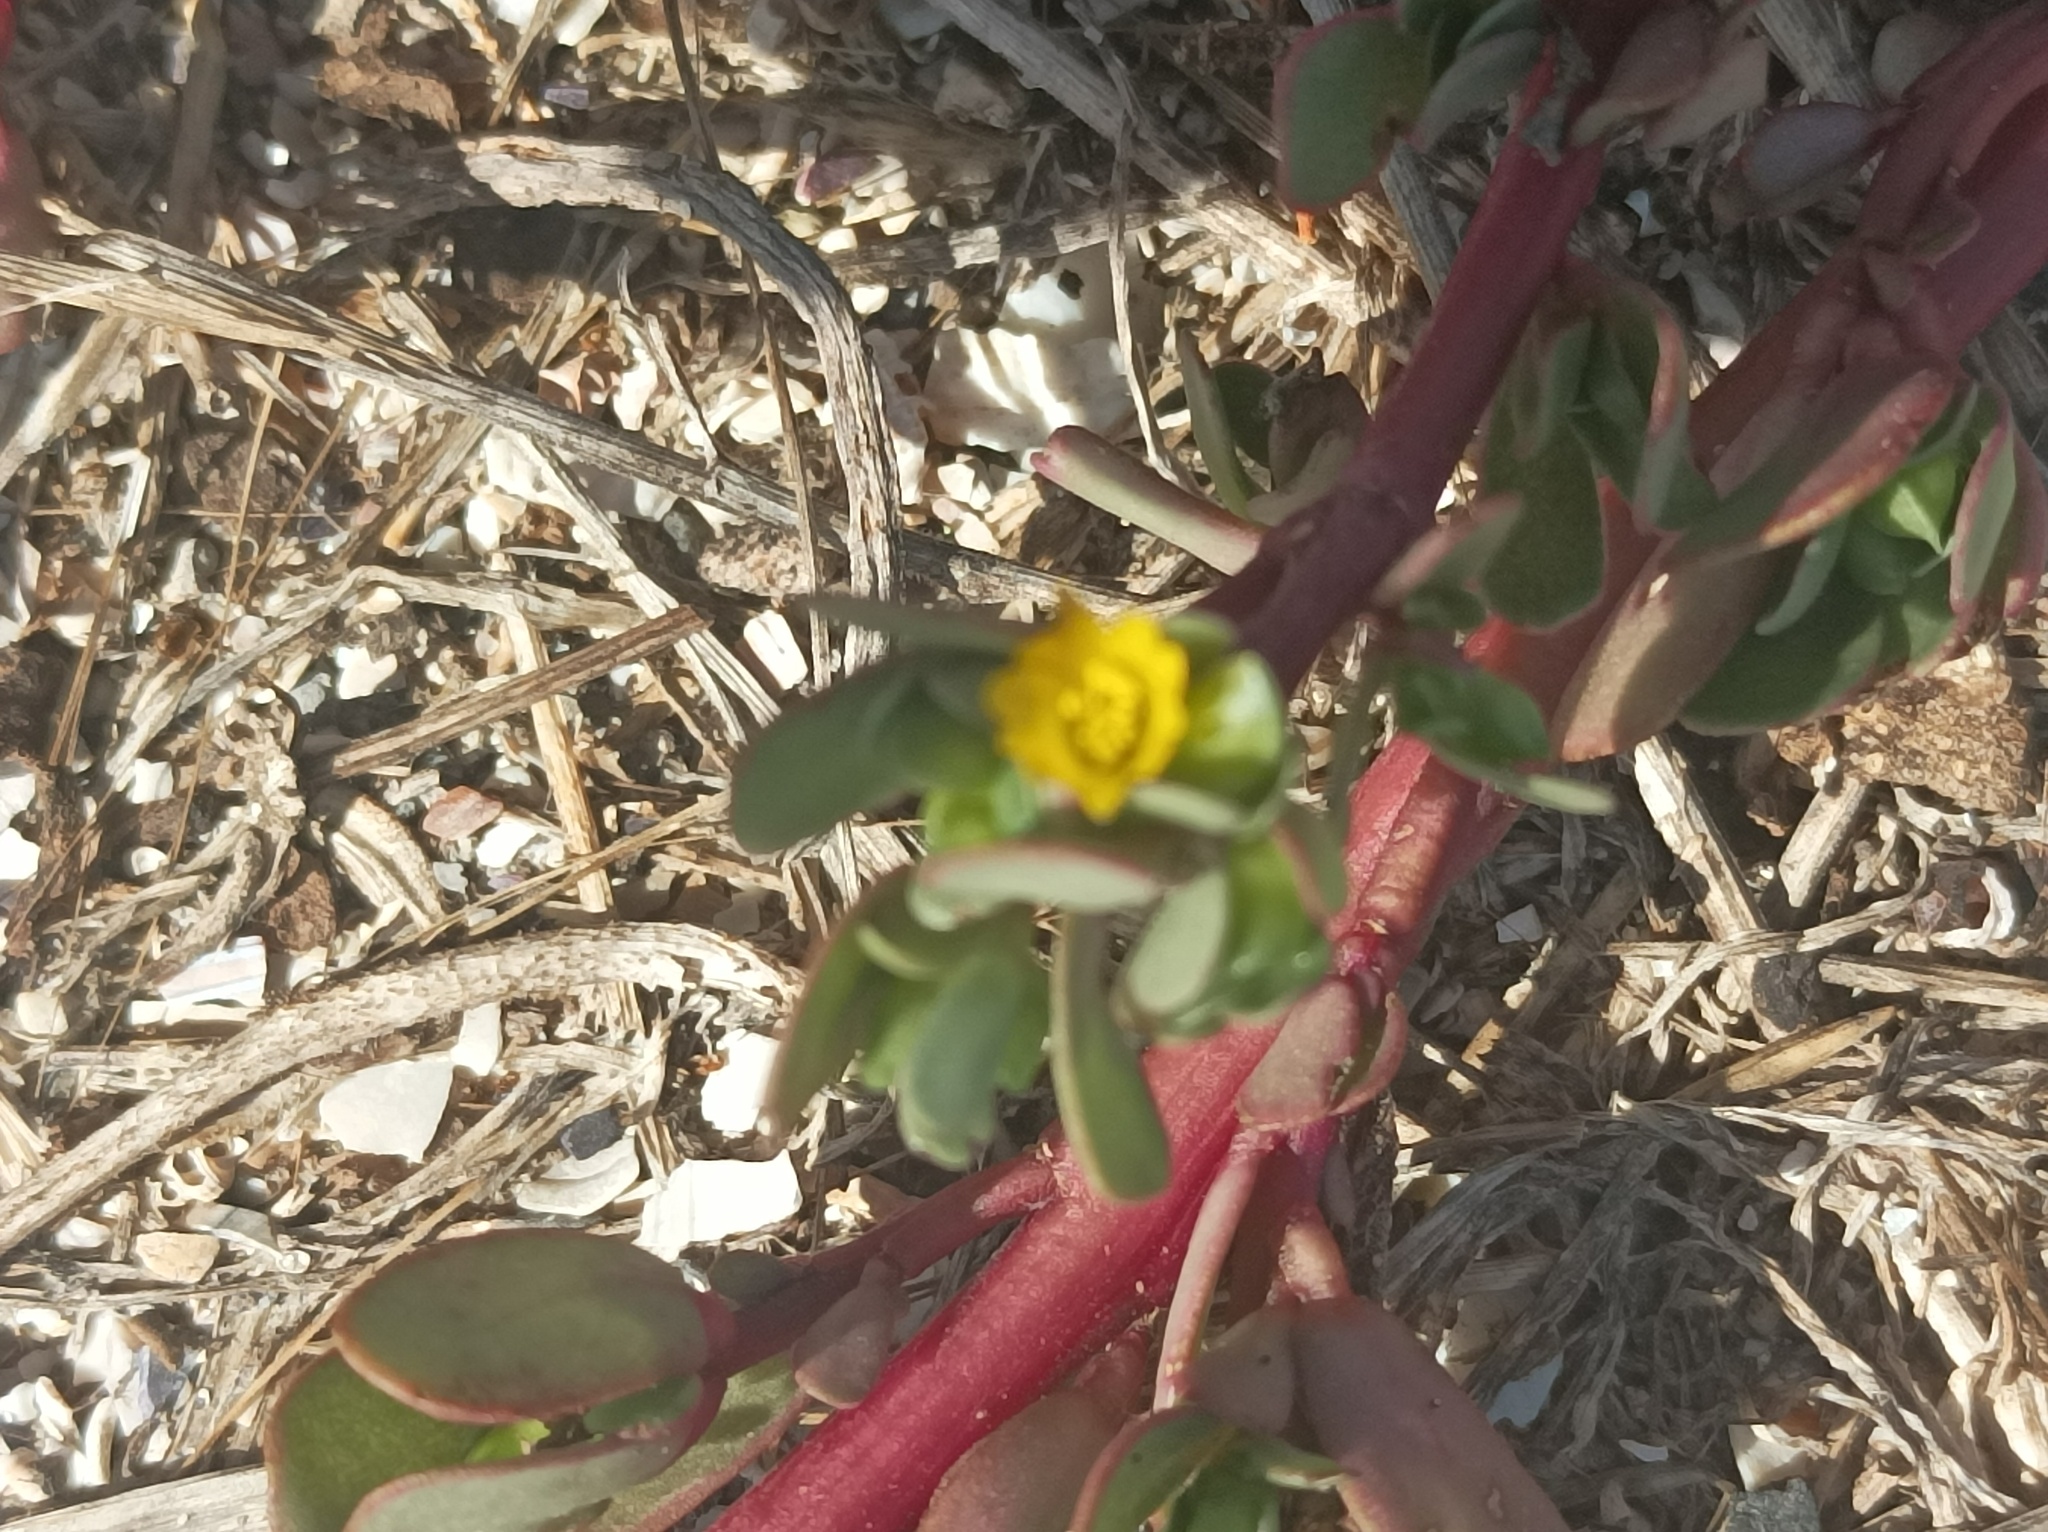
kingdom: Plantae
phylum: Tracheophyta
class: Magnoliopsida
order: Caryophyllales
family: Portulacaceae
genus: Portulaca
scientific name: Portulaca oleracea
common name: Common purslane
